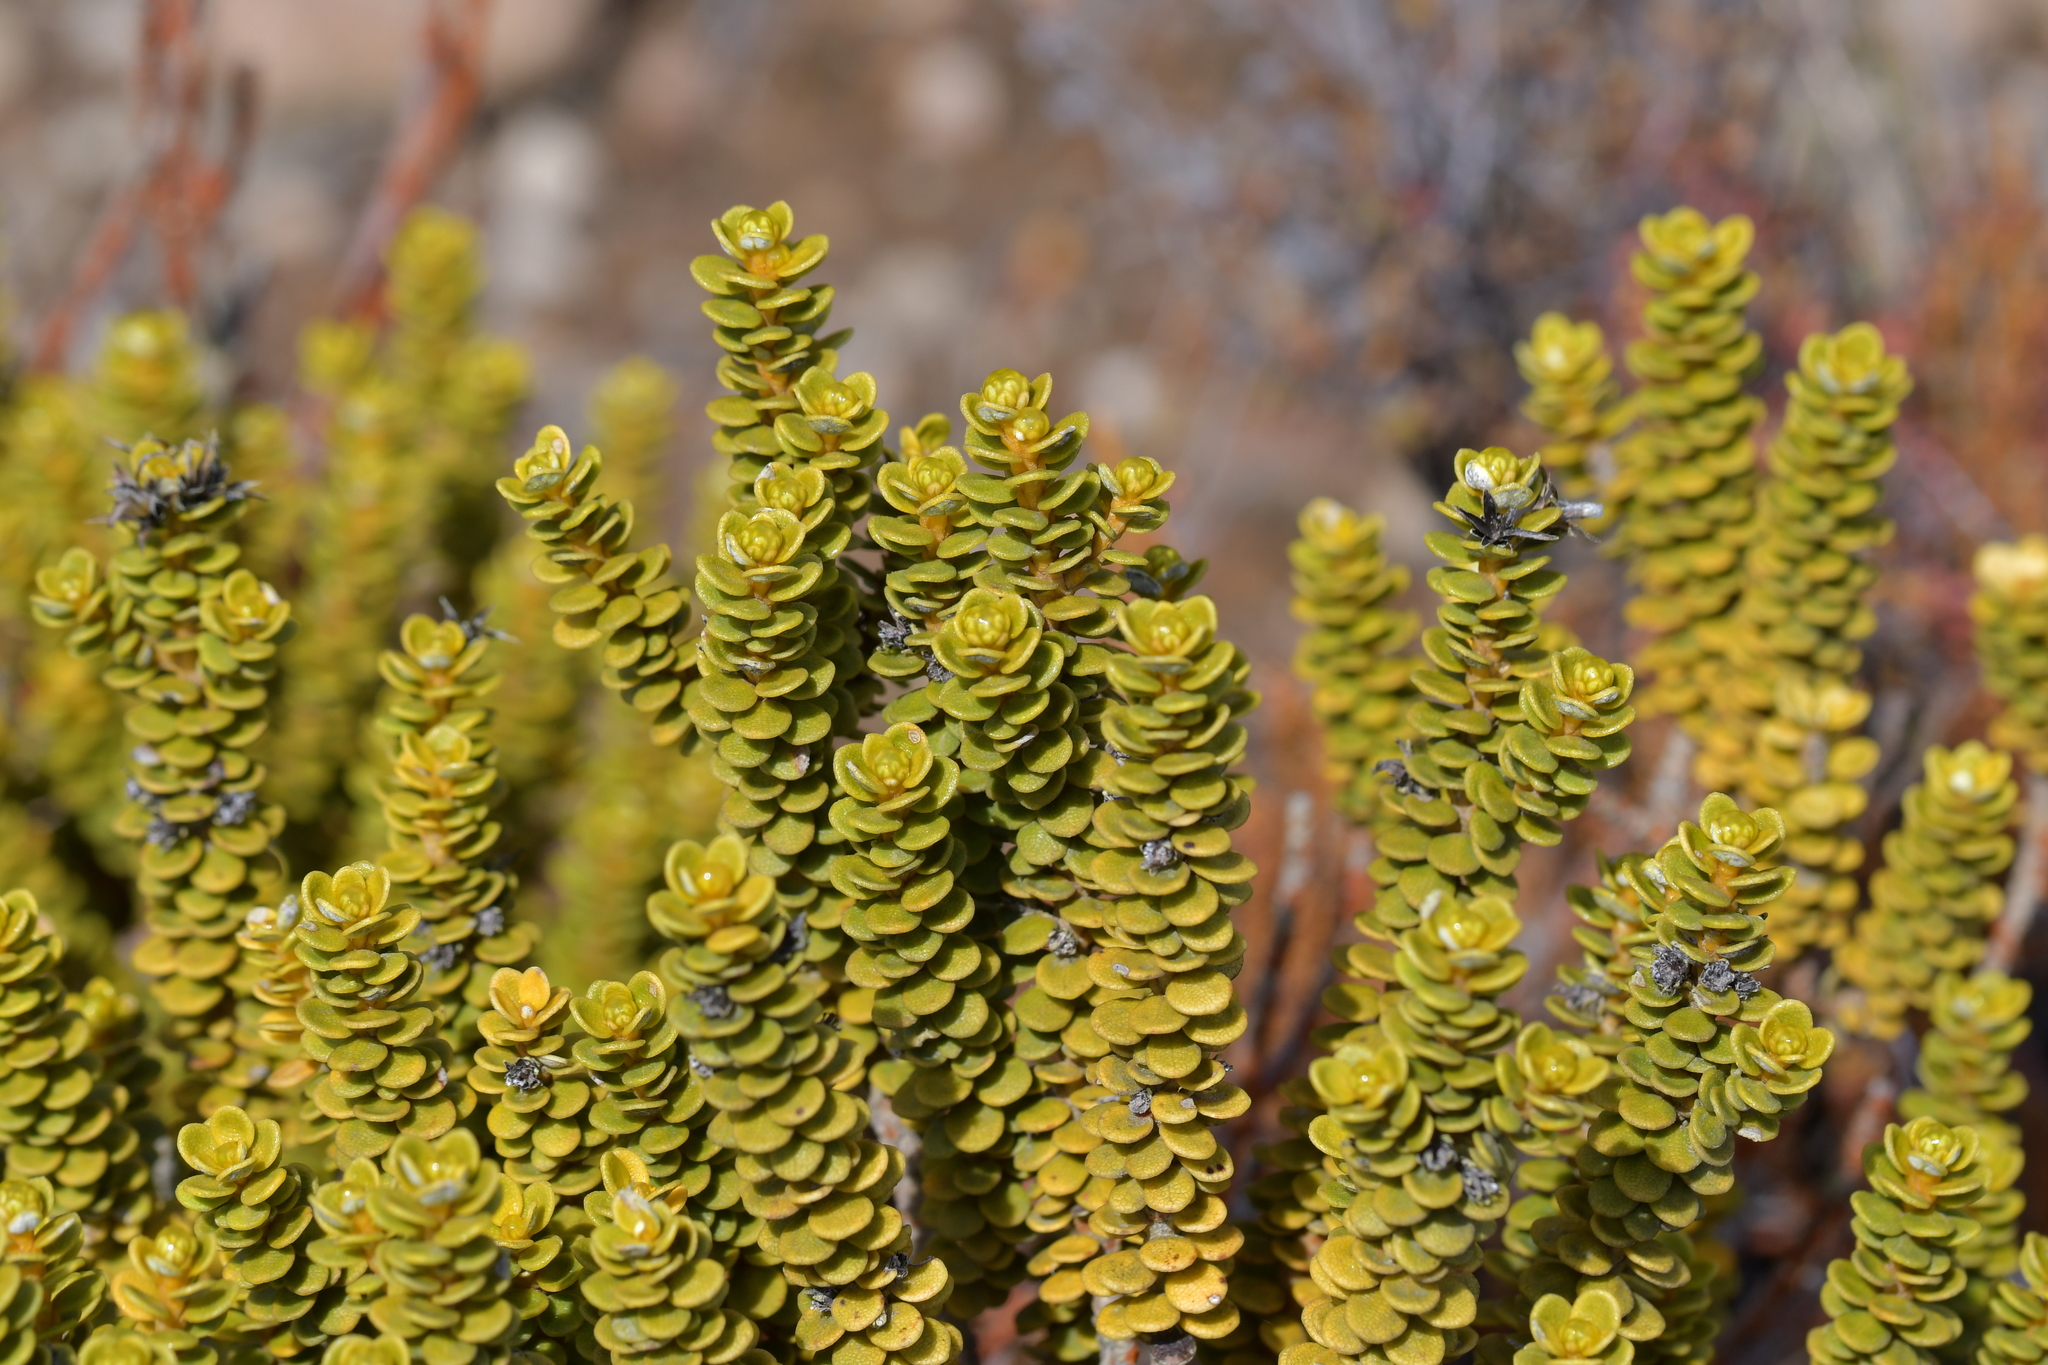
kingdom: Plantae
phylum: Tracheophyta
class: Magnoliopsida
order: Asterales
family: Asteraceae
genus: Olearia
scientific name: Olearia nummularifolia
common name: Sticky daisybush
